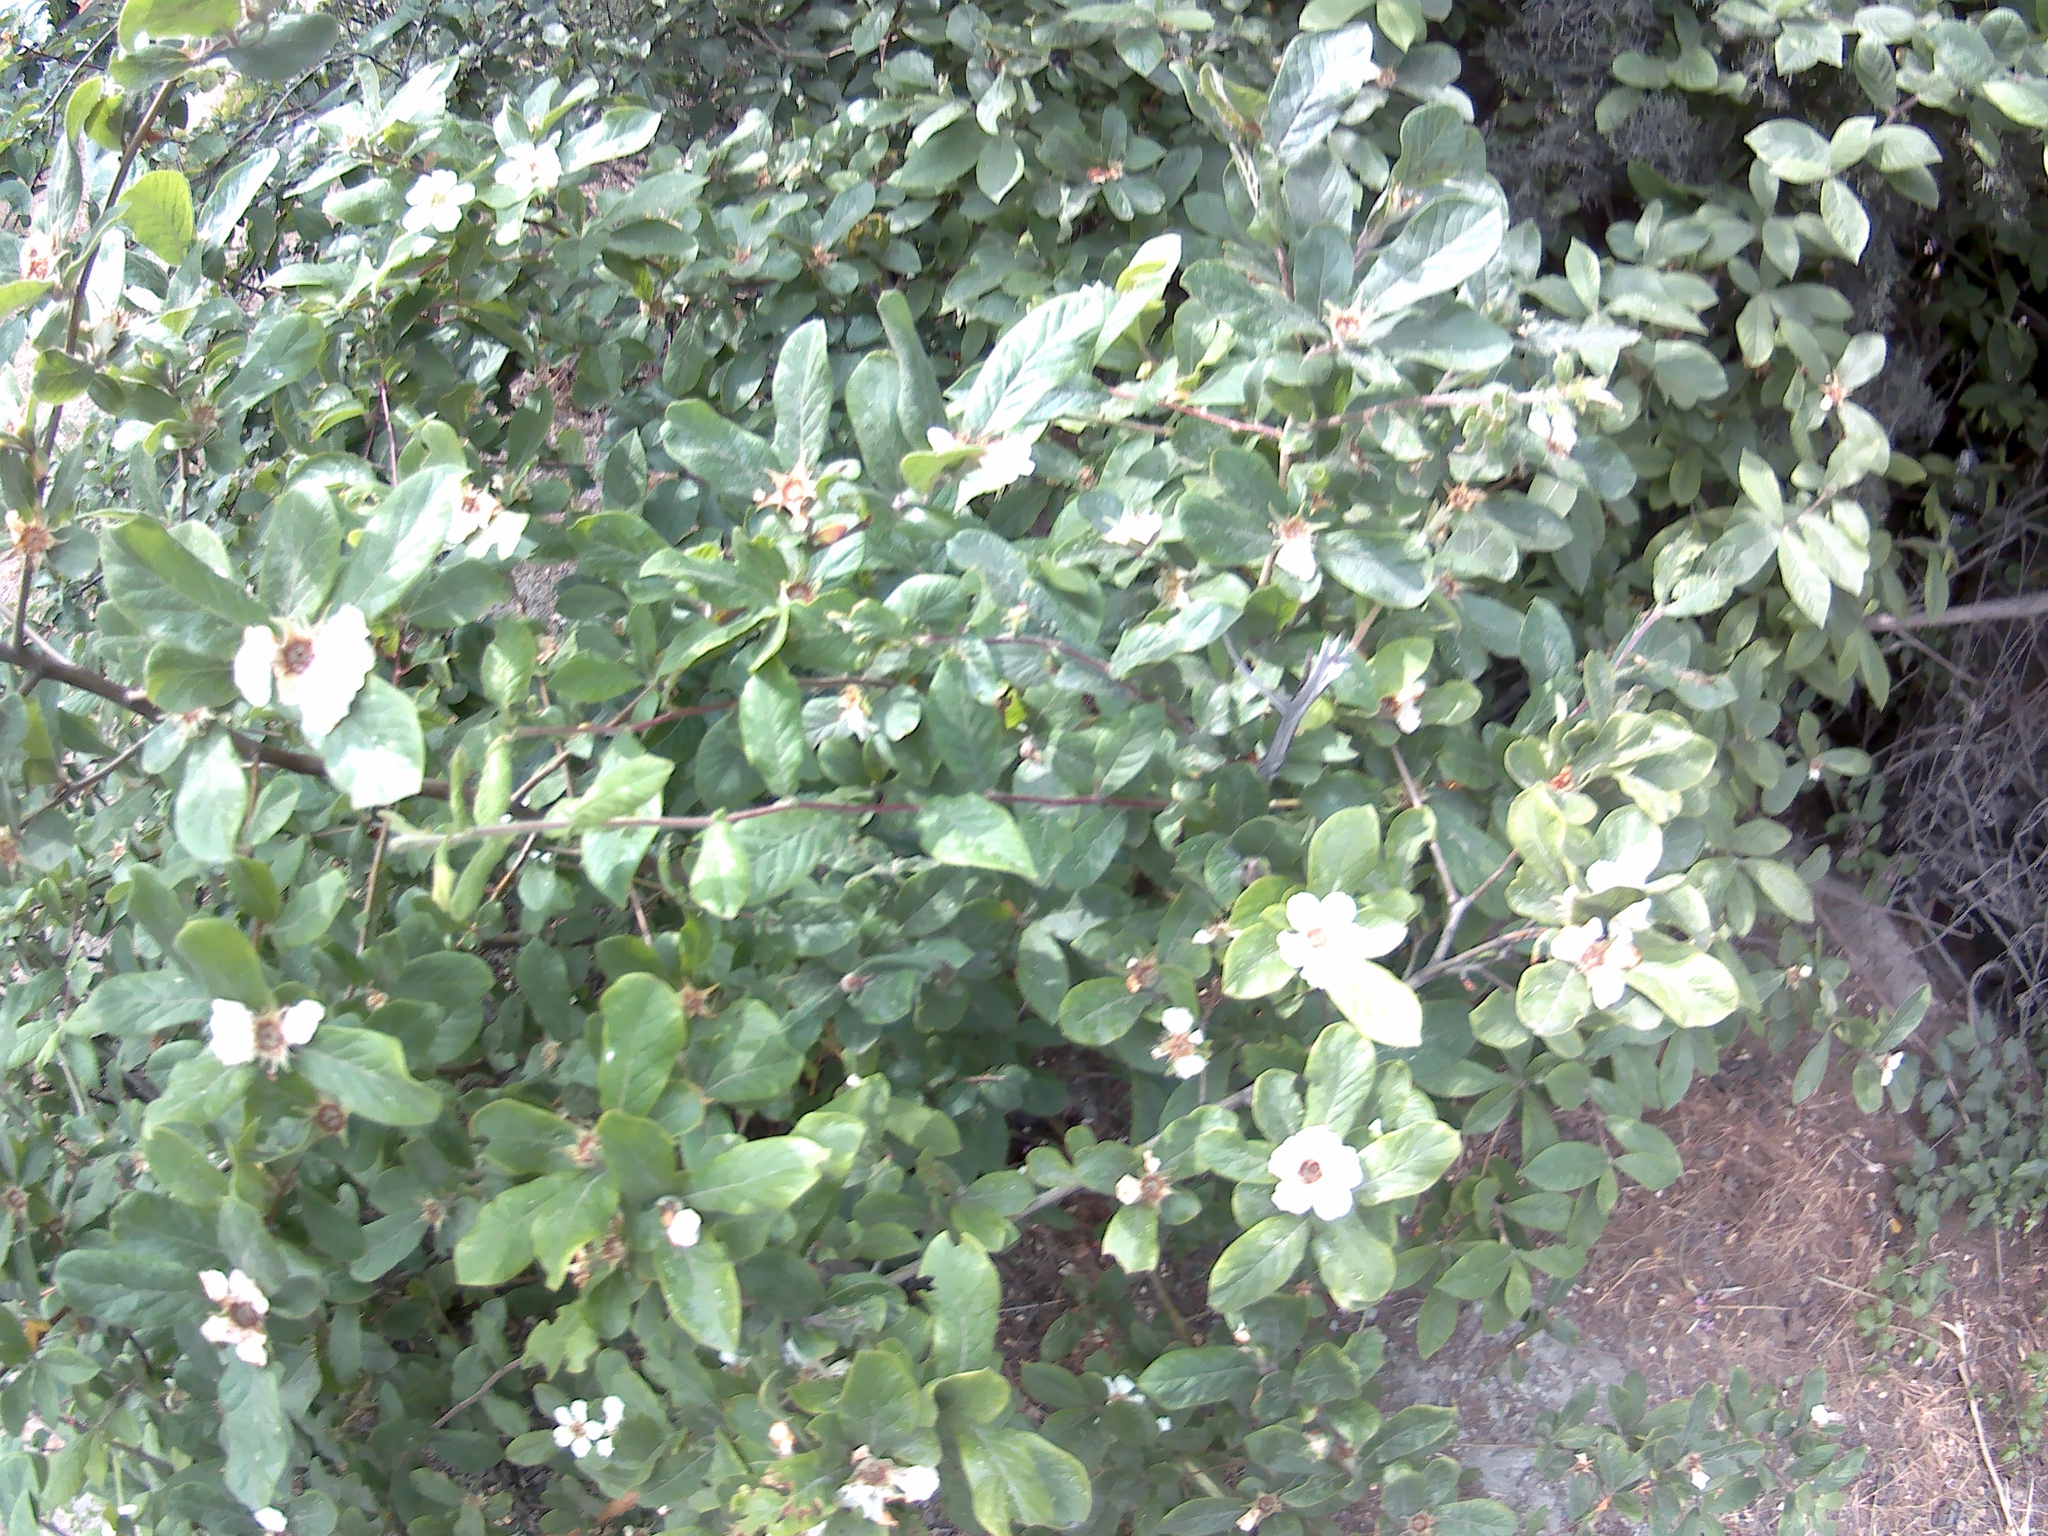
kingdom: Plantae
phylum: Tracheophyta
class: Magnoliopsida
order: Rosales
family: Rosaceae
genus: Mespilus
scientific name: Mespilus germanica
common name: Medlar
